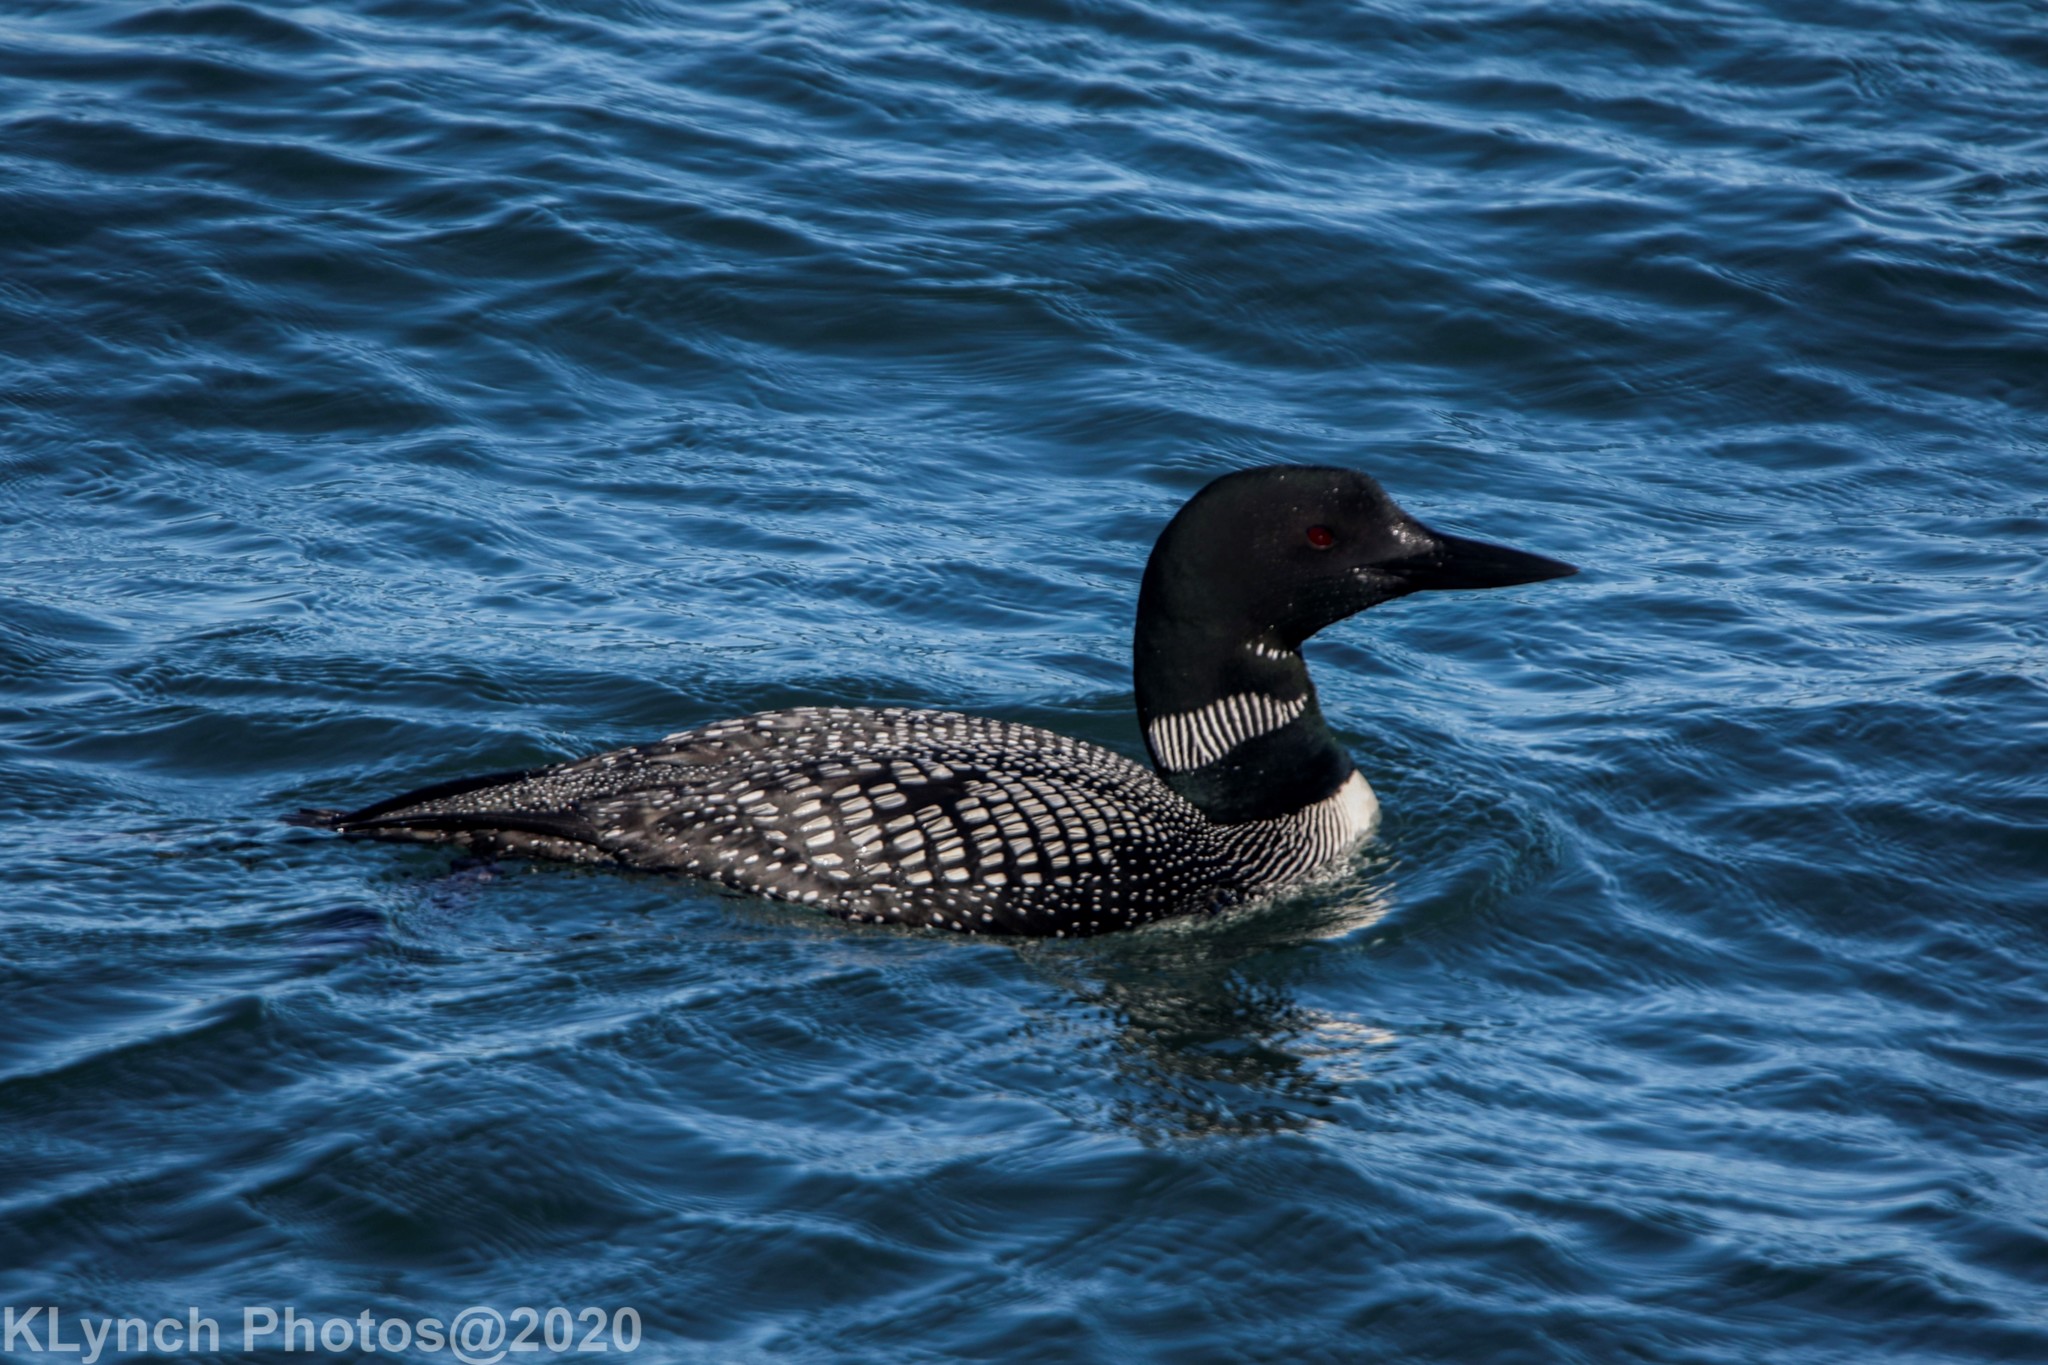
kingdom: Animalia
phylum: Chordata
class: Aves
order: Gaviiformes
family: Gaviidae
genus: Gavia
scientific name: Gavia immer
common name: Common loon
